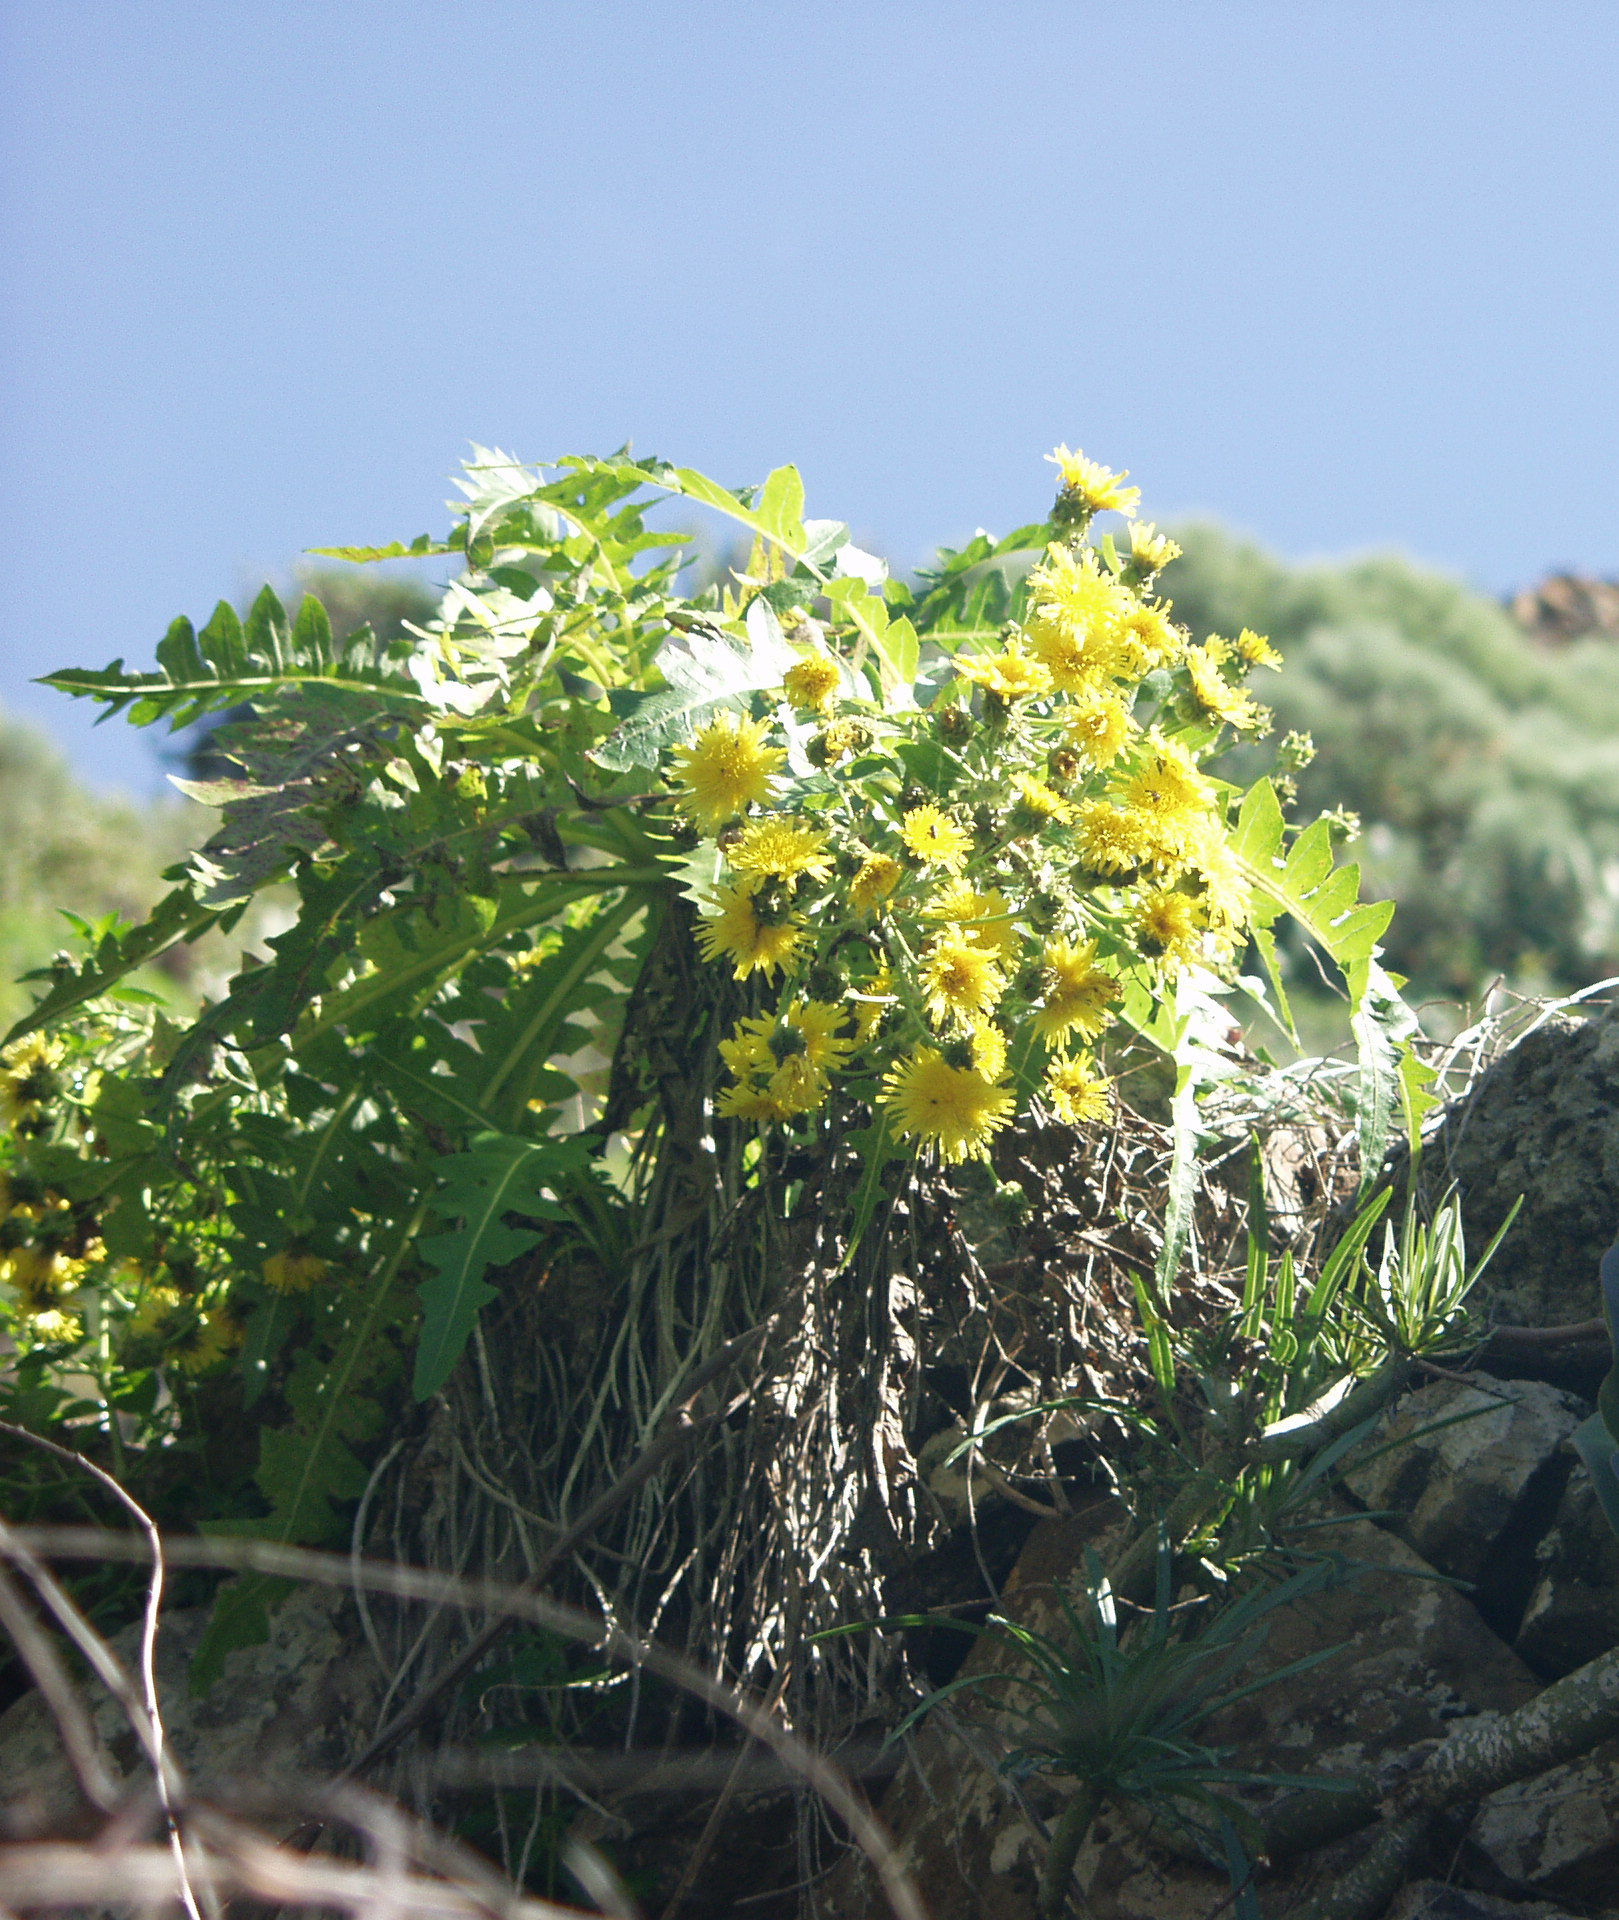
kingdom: Plantae
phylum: Tracheophyta
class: Magnoliopsida
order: Asterales
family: Asteraceae
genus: Sonchus
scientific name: Sonchus hierrensis
